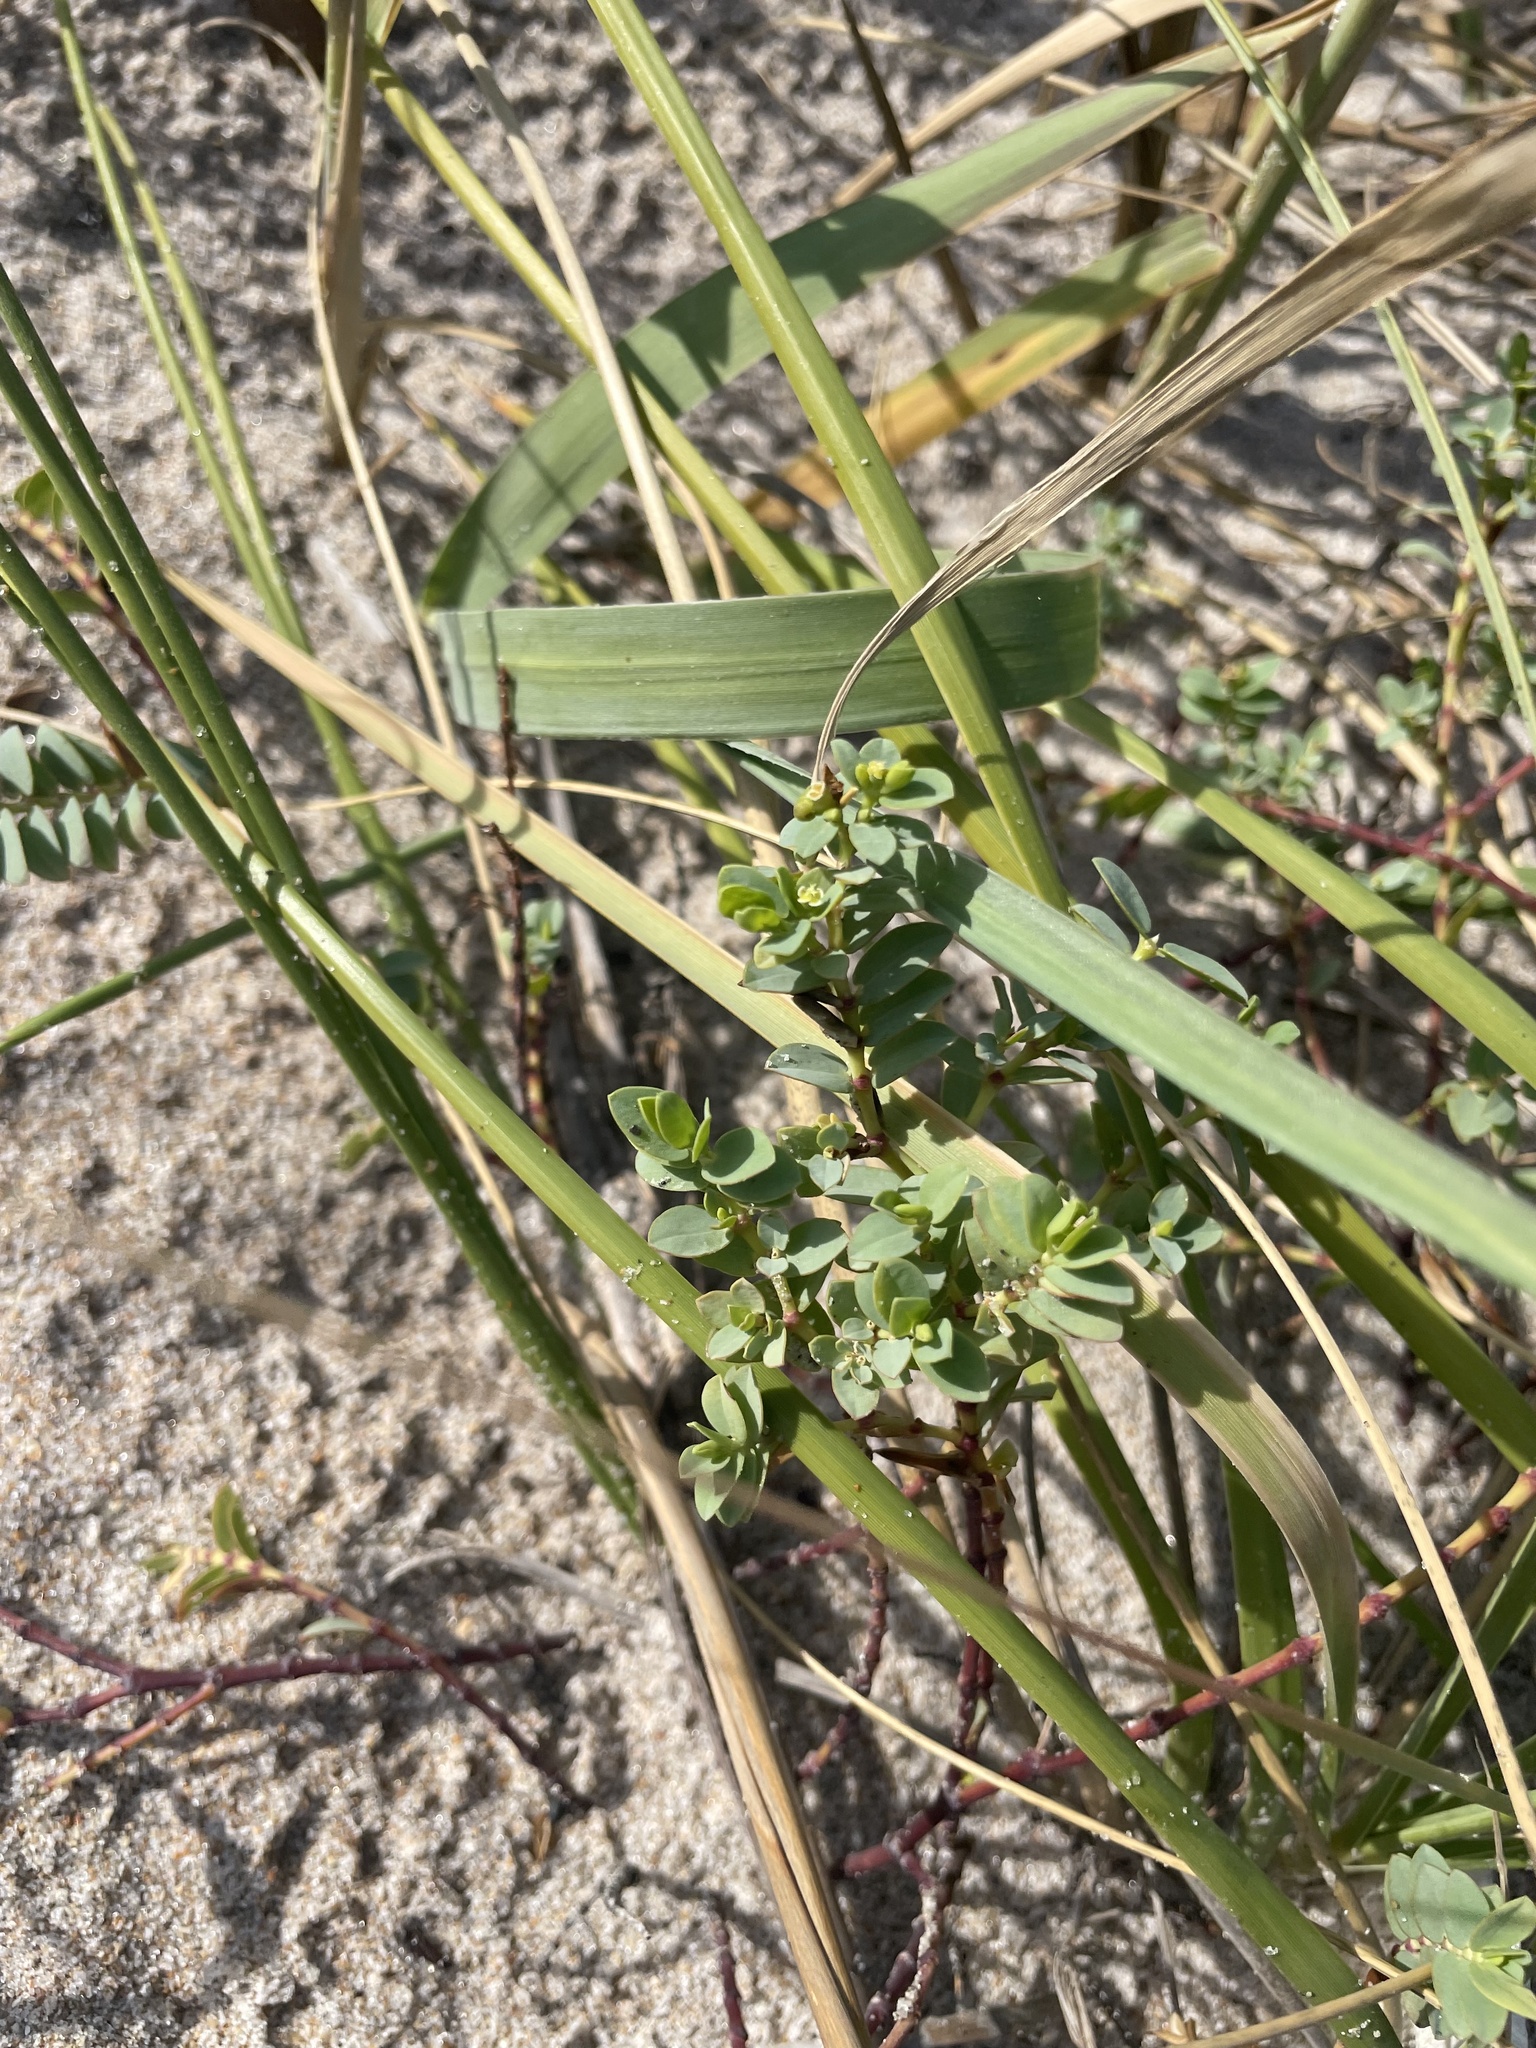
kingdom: Plantae
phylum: Tracheophyta
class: Magnoliopsida
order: Malpighiales
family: Euphorbiaceae
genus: Euphorbia
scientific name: Euphorbia mesembryanthemifolia
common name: Coastal beach sandmat
